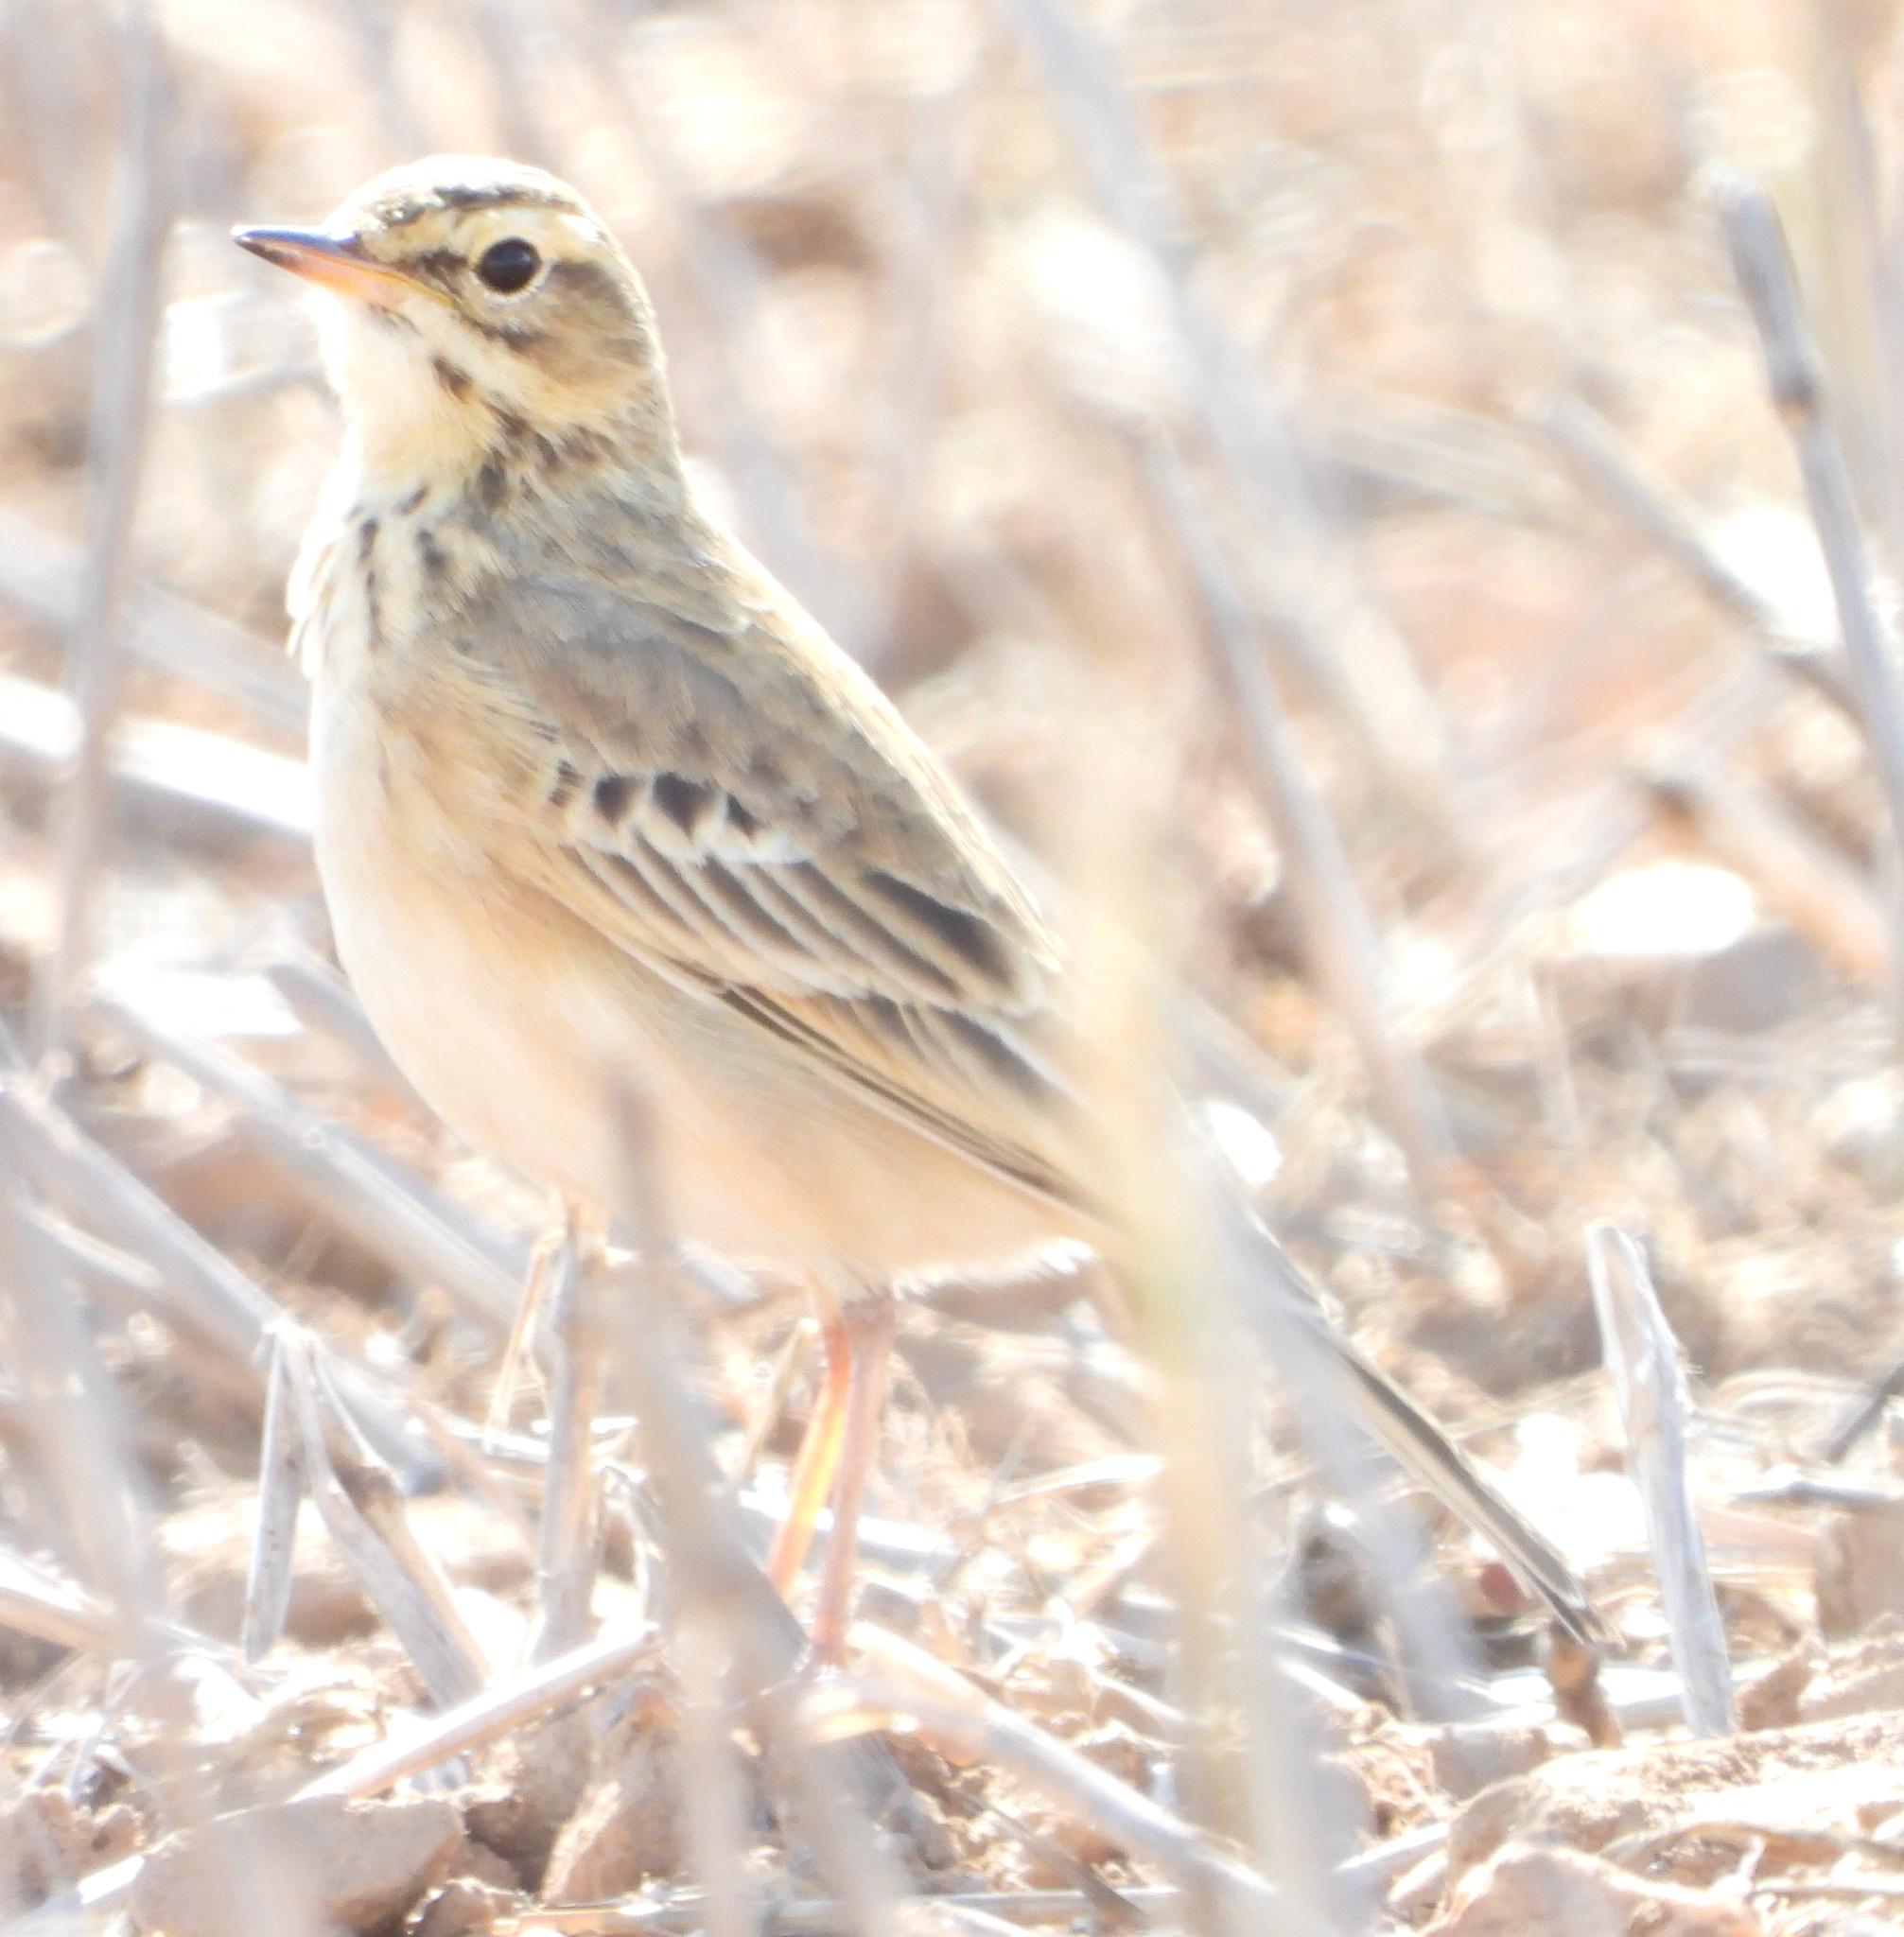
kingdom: Animalia
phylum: Chordata
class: Aves
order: Passeriformes
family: Motacillidae
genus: Anthus
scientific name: Anthus cinnamomeus
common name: African pipit
